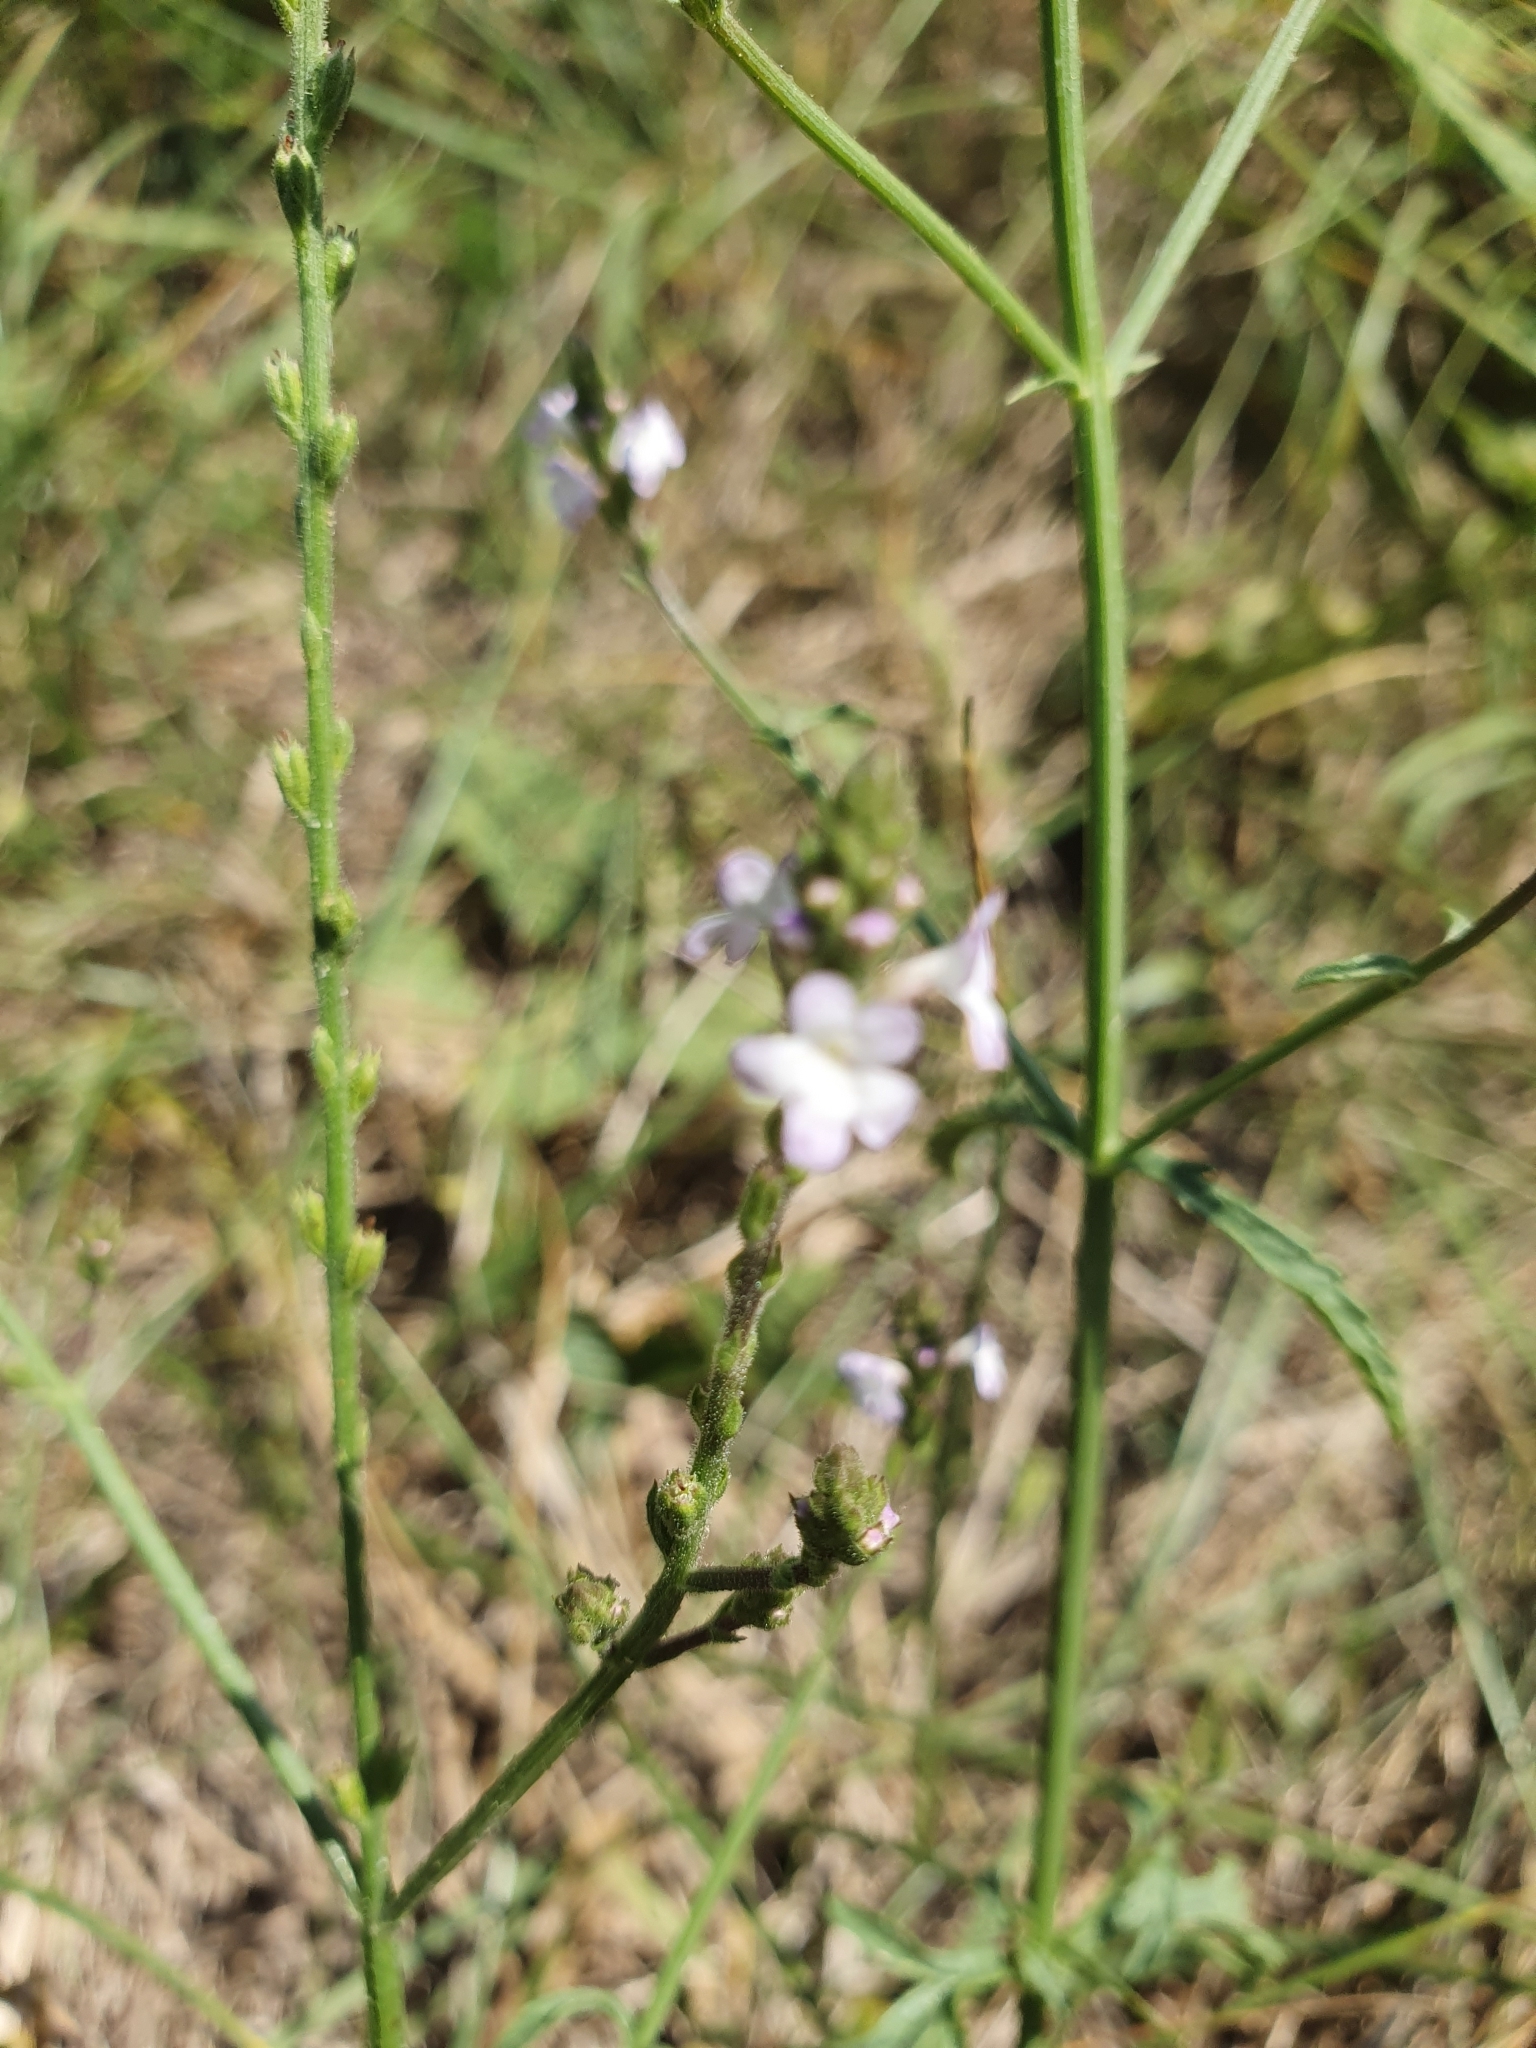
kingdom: Plantae
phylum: Tracheophyta
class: Magnoliopsida
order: Lamiales
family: Verbenaceae
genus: Verbena
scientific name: Verbena officinalis
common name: Vervain
